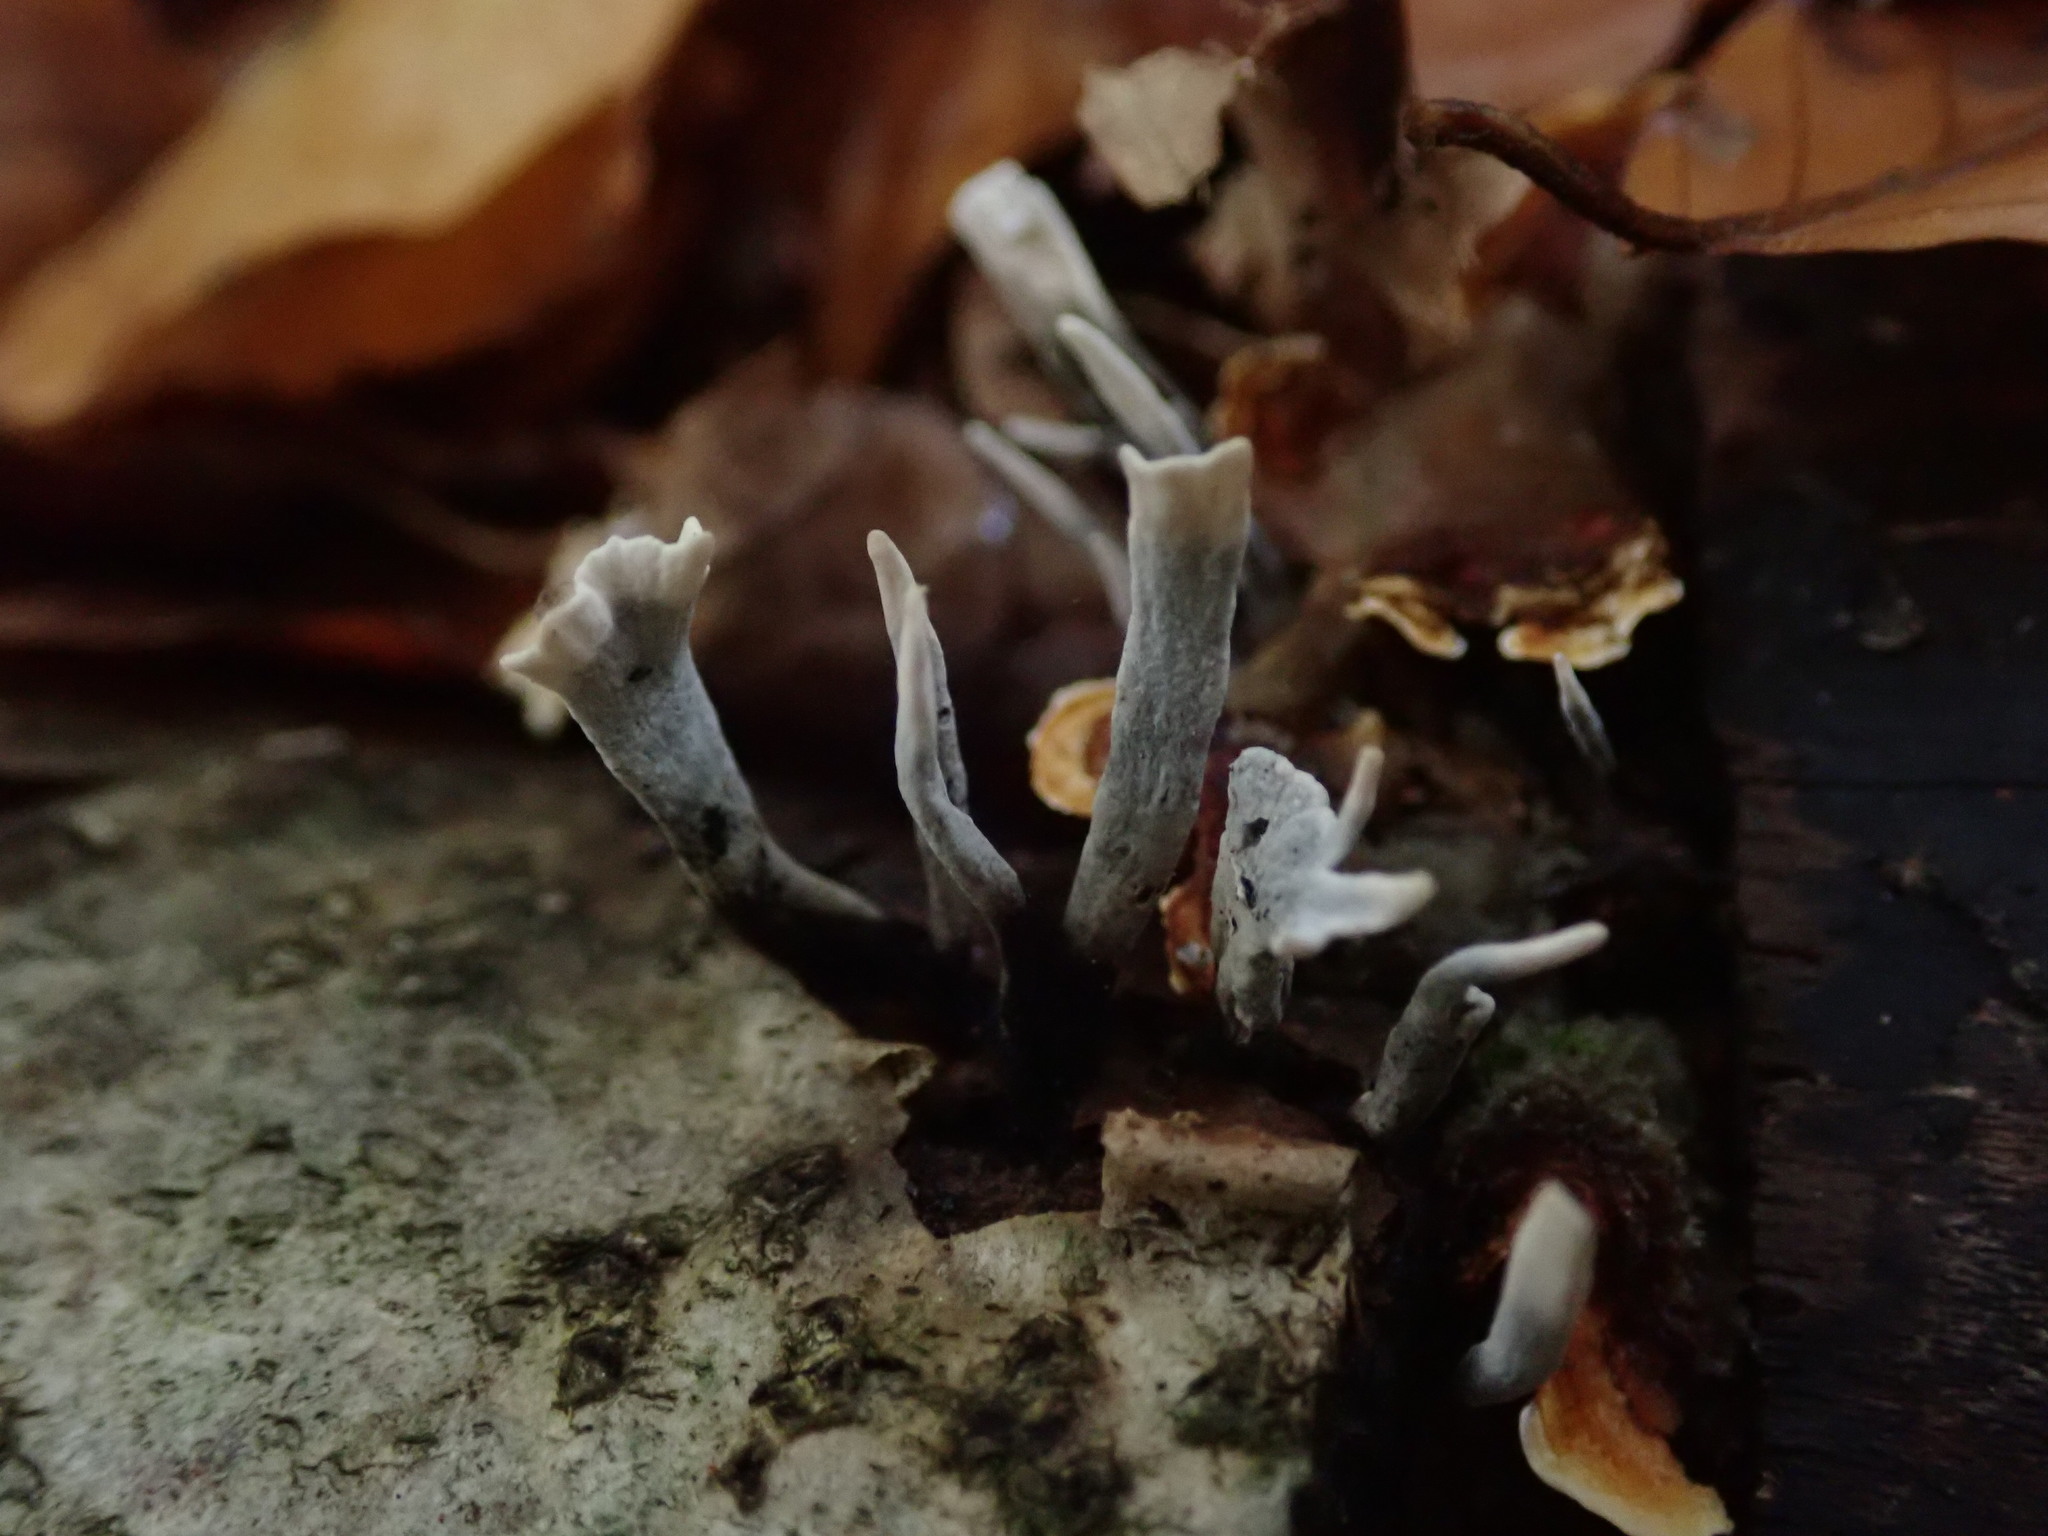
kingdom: Fungi
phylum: Ascomycota
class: Sordariomycetes
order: Xylariales
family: Xylariaceae
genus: Xylaria
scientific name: Xylaria hypoxylon
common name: Candle-snuff fungus
